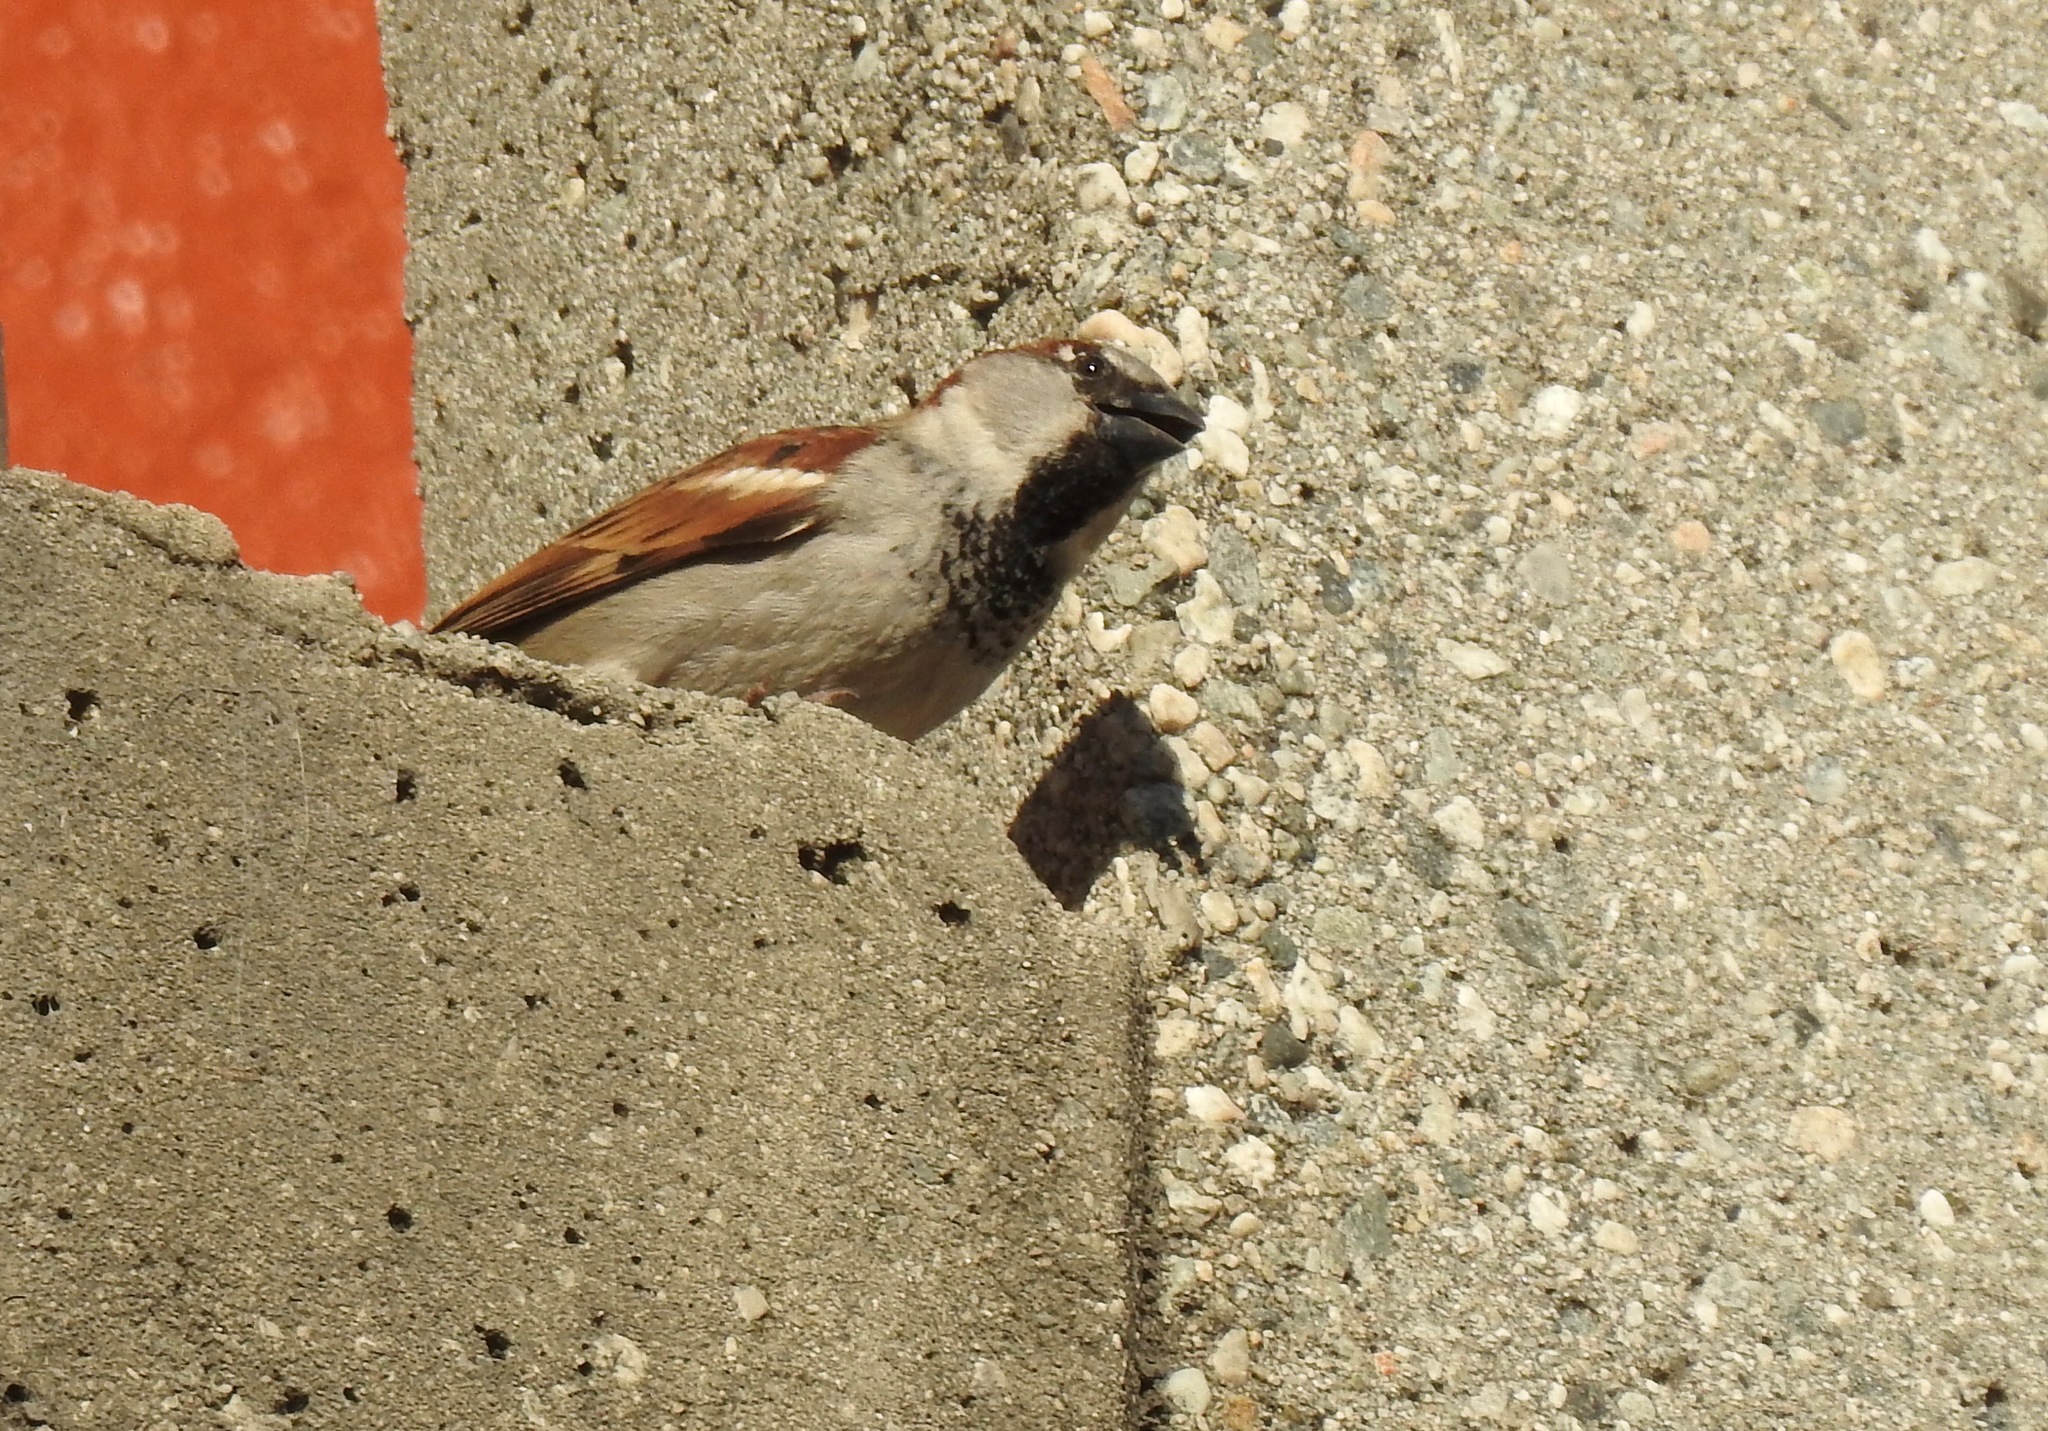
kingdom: Animalia
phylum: Chordata
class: Aves
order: Passeriformes
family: Passeridae
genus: Passer
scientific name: Passer domesticus
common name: House sparrow
